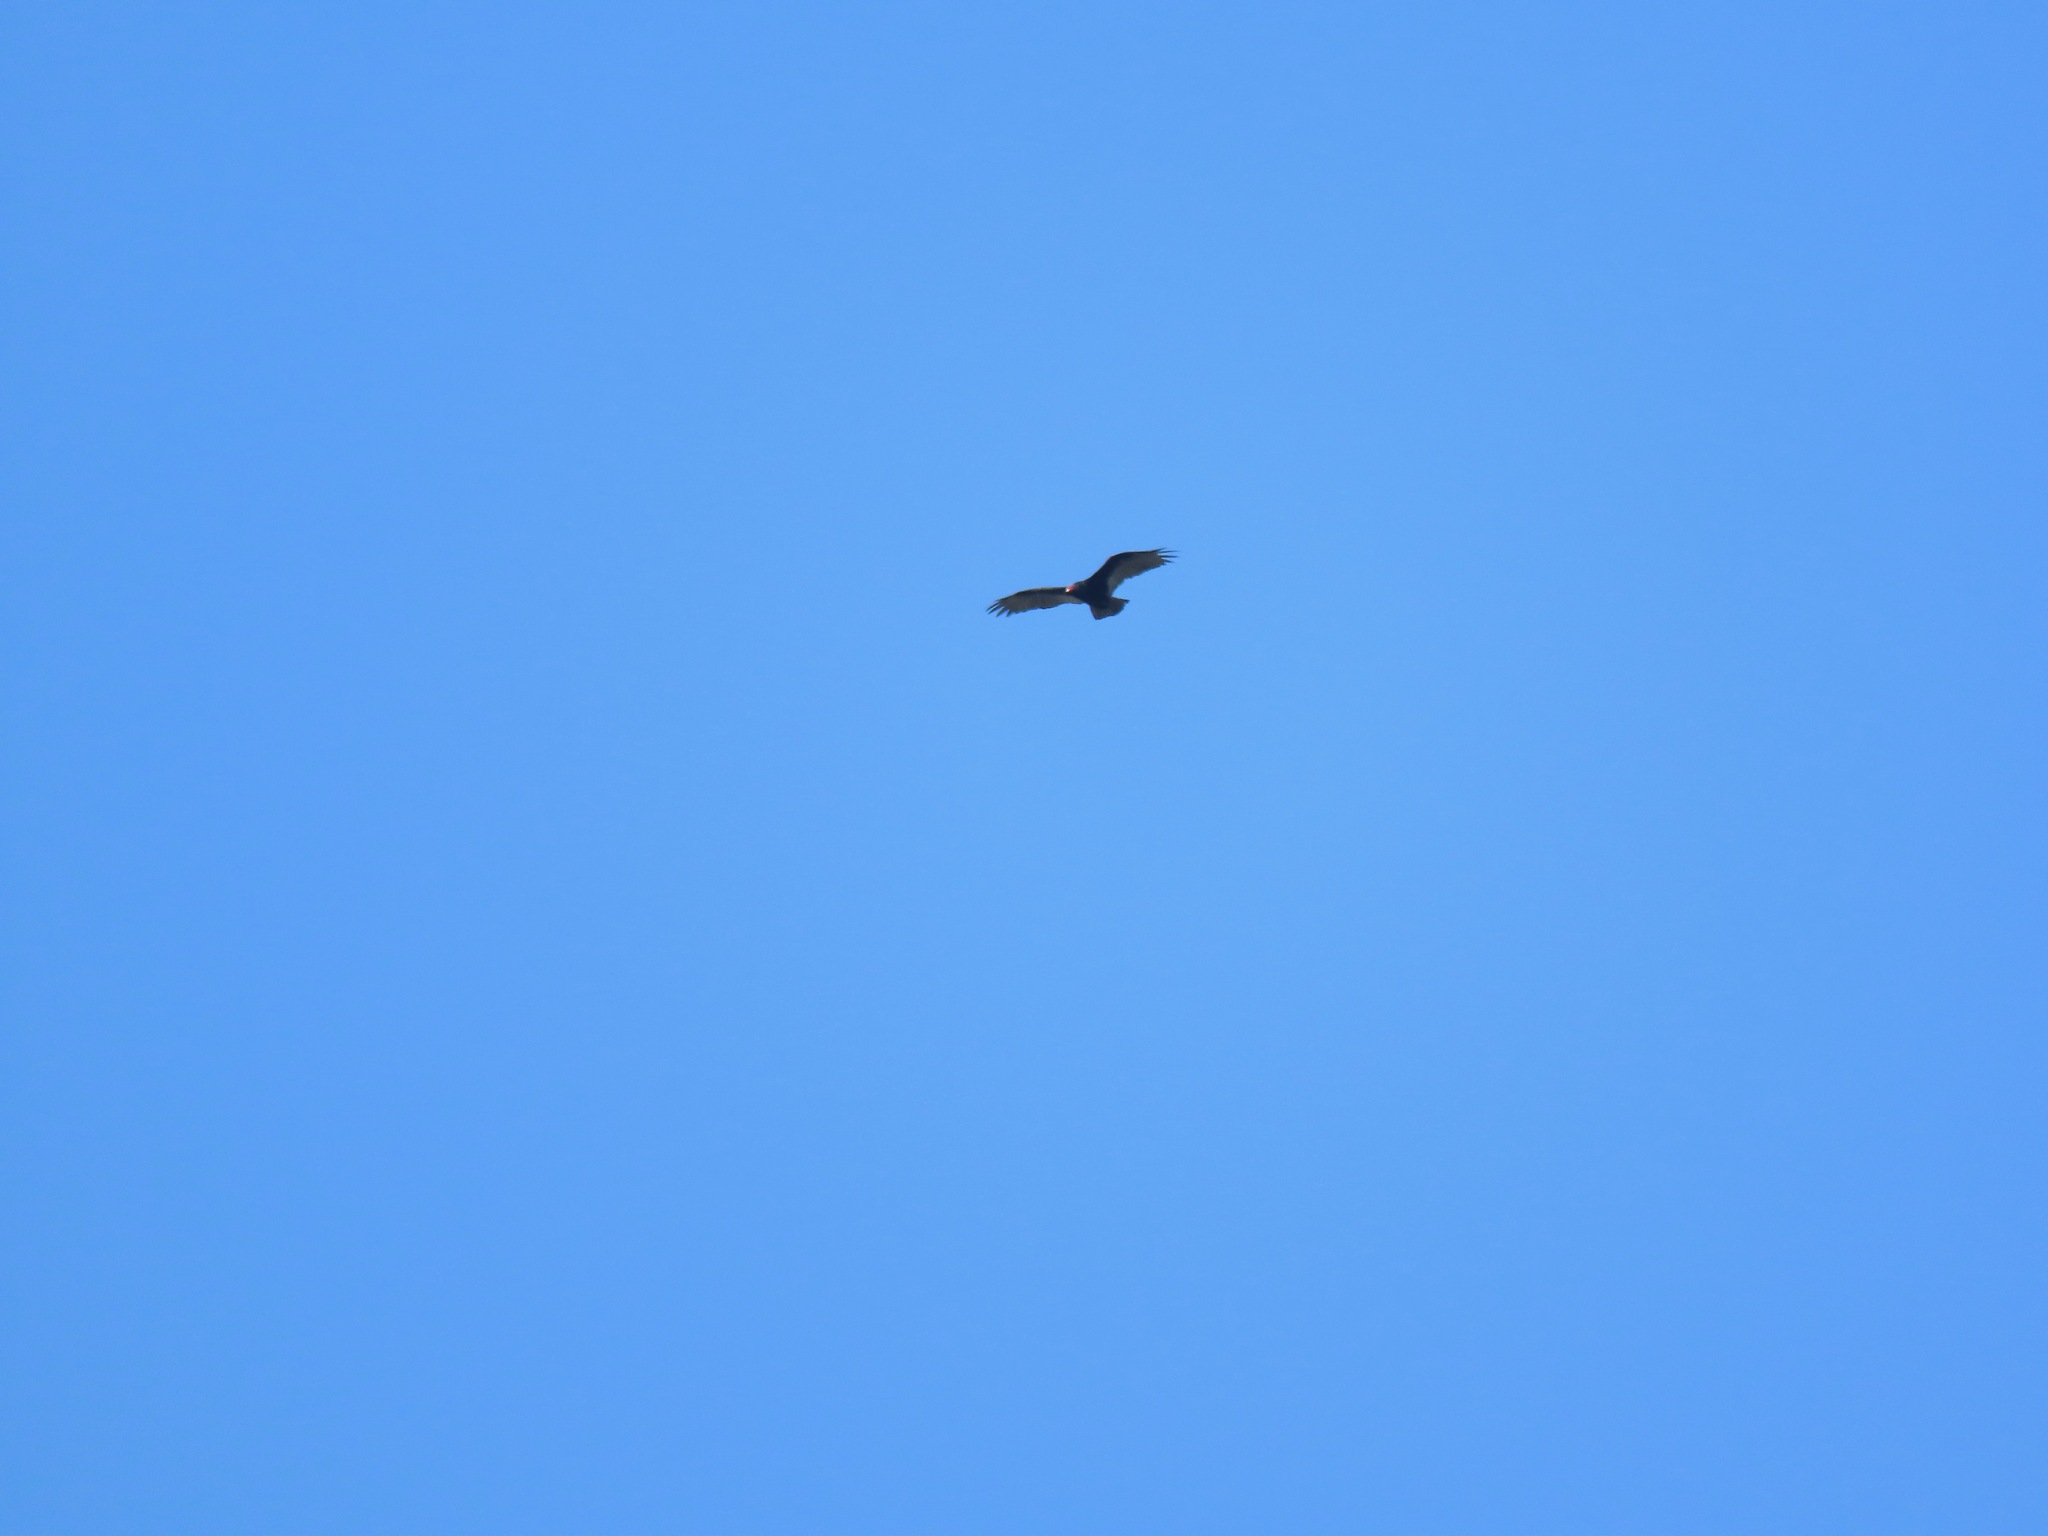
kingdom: Animalia
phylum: Chordata
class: Aves
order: Accipitriformes
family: Cathartidae
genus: Cathartes
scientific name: Cathartes aura
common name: Turkey vulture
